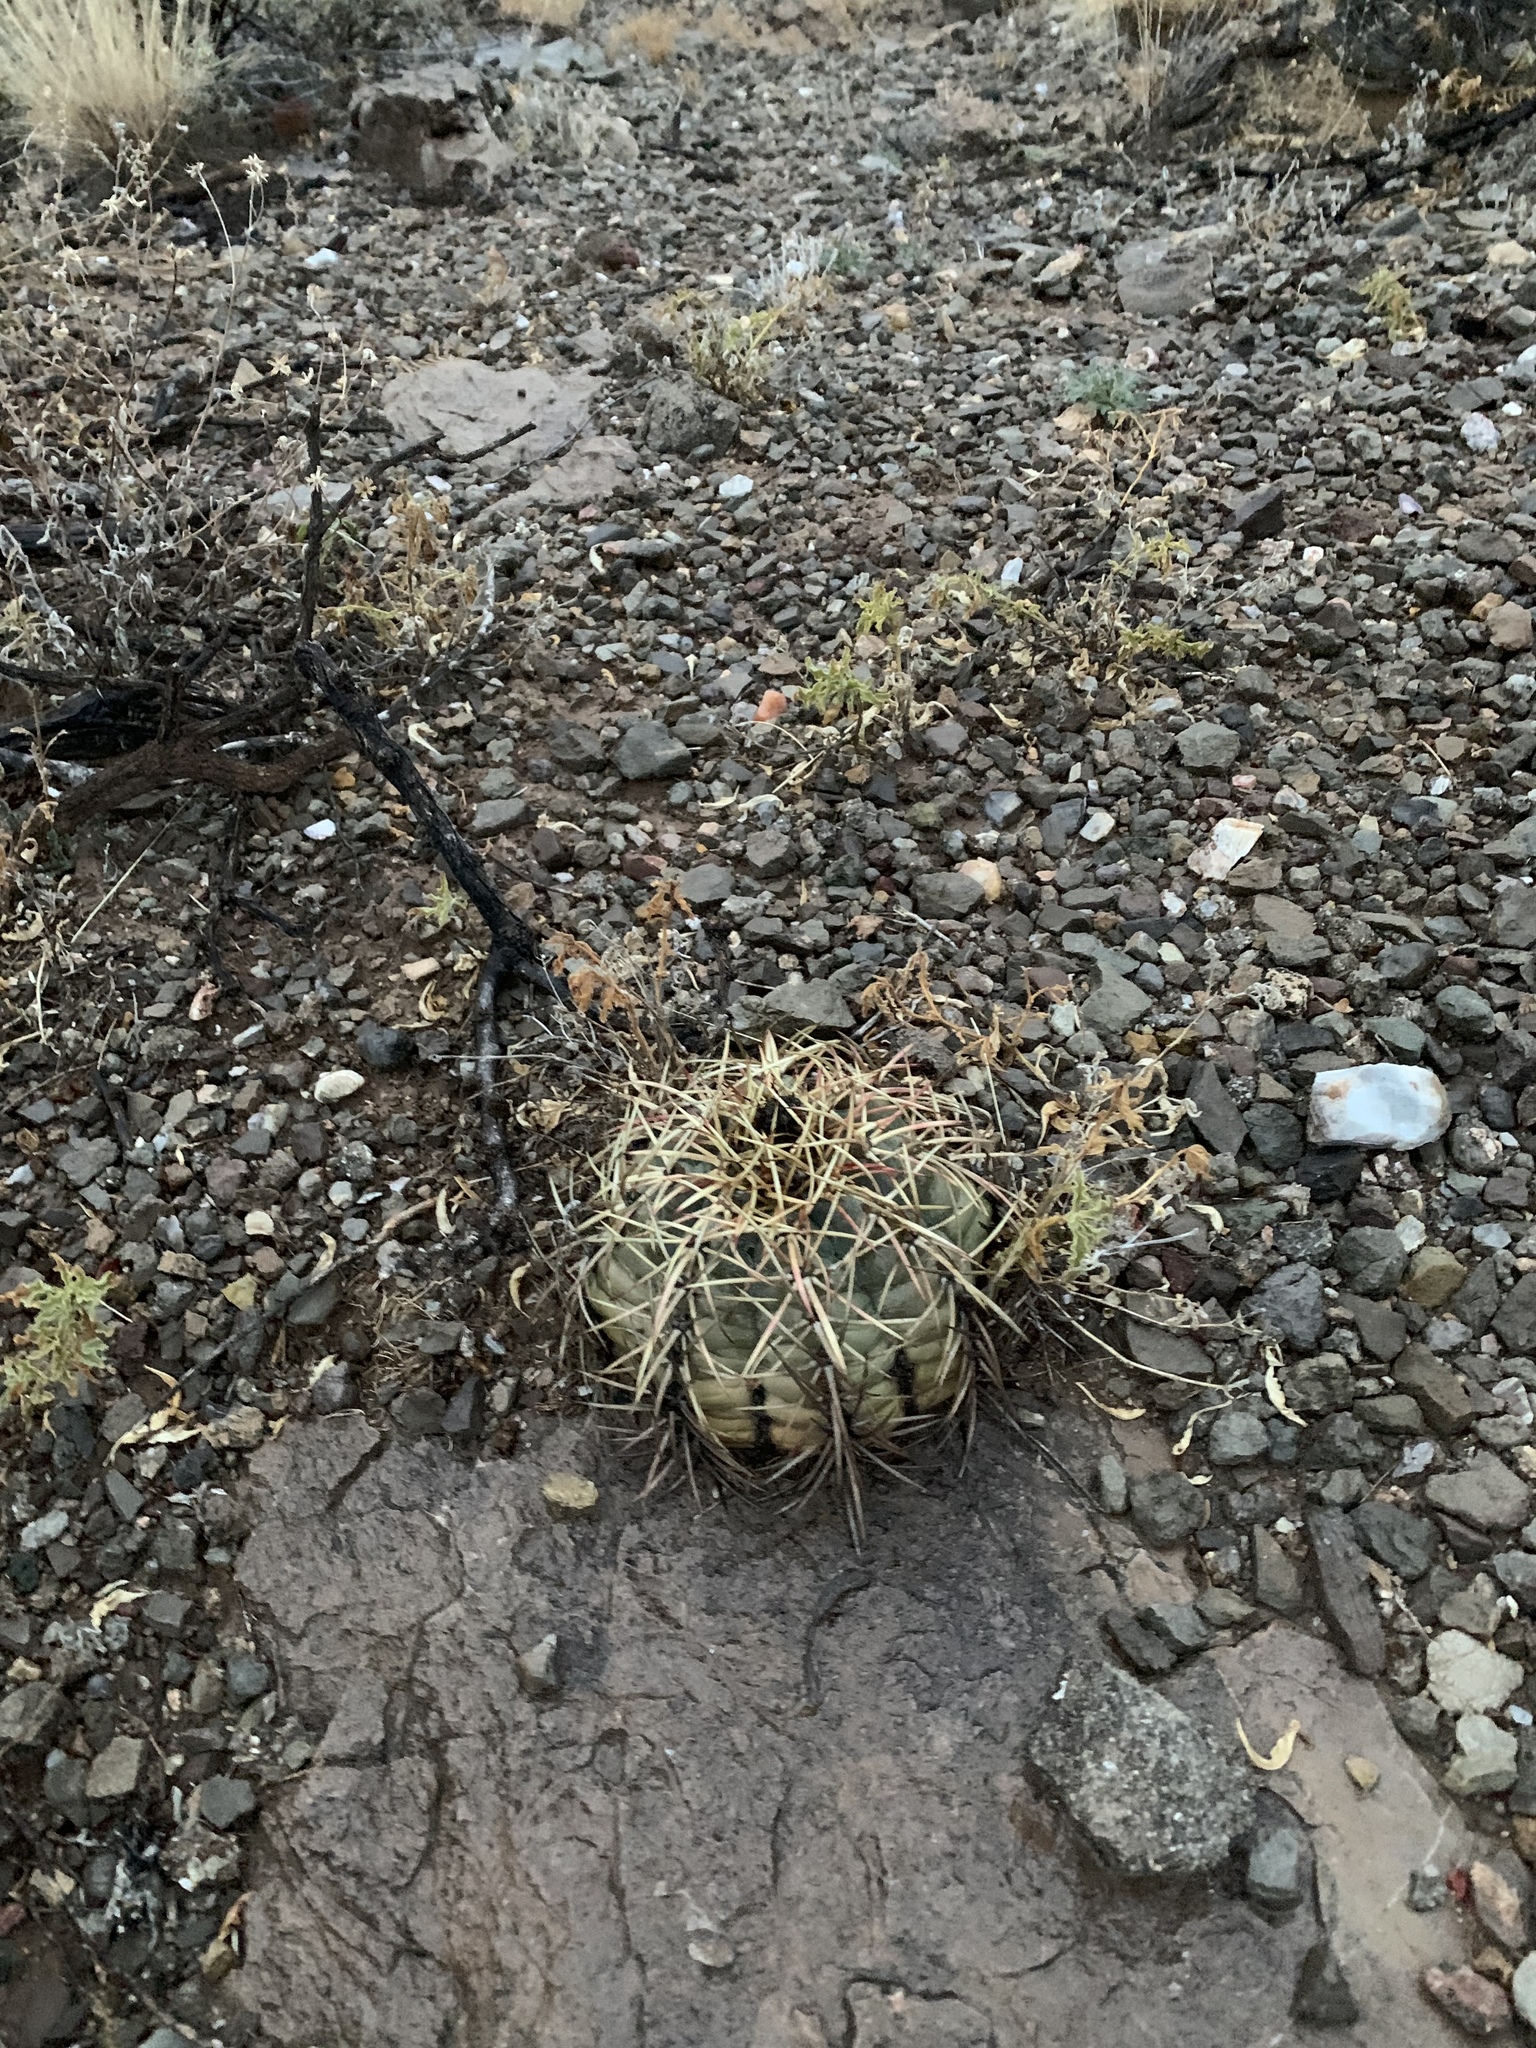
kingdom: Plantae
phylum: Tracheophyta
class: Magnoliopsida
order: Caryophyllales
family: Cactaceae
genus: Echinocactus
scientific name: Echinocactus horizonthalonius
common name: Devilshead
